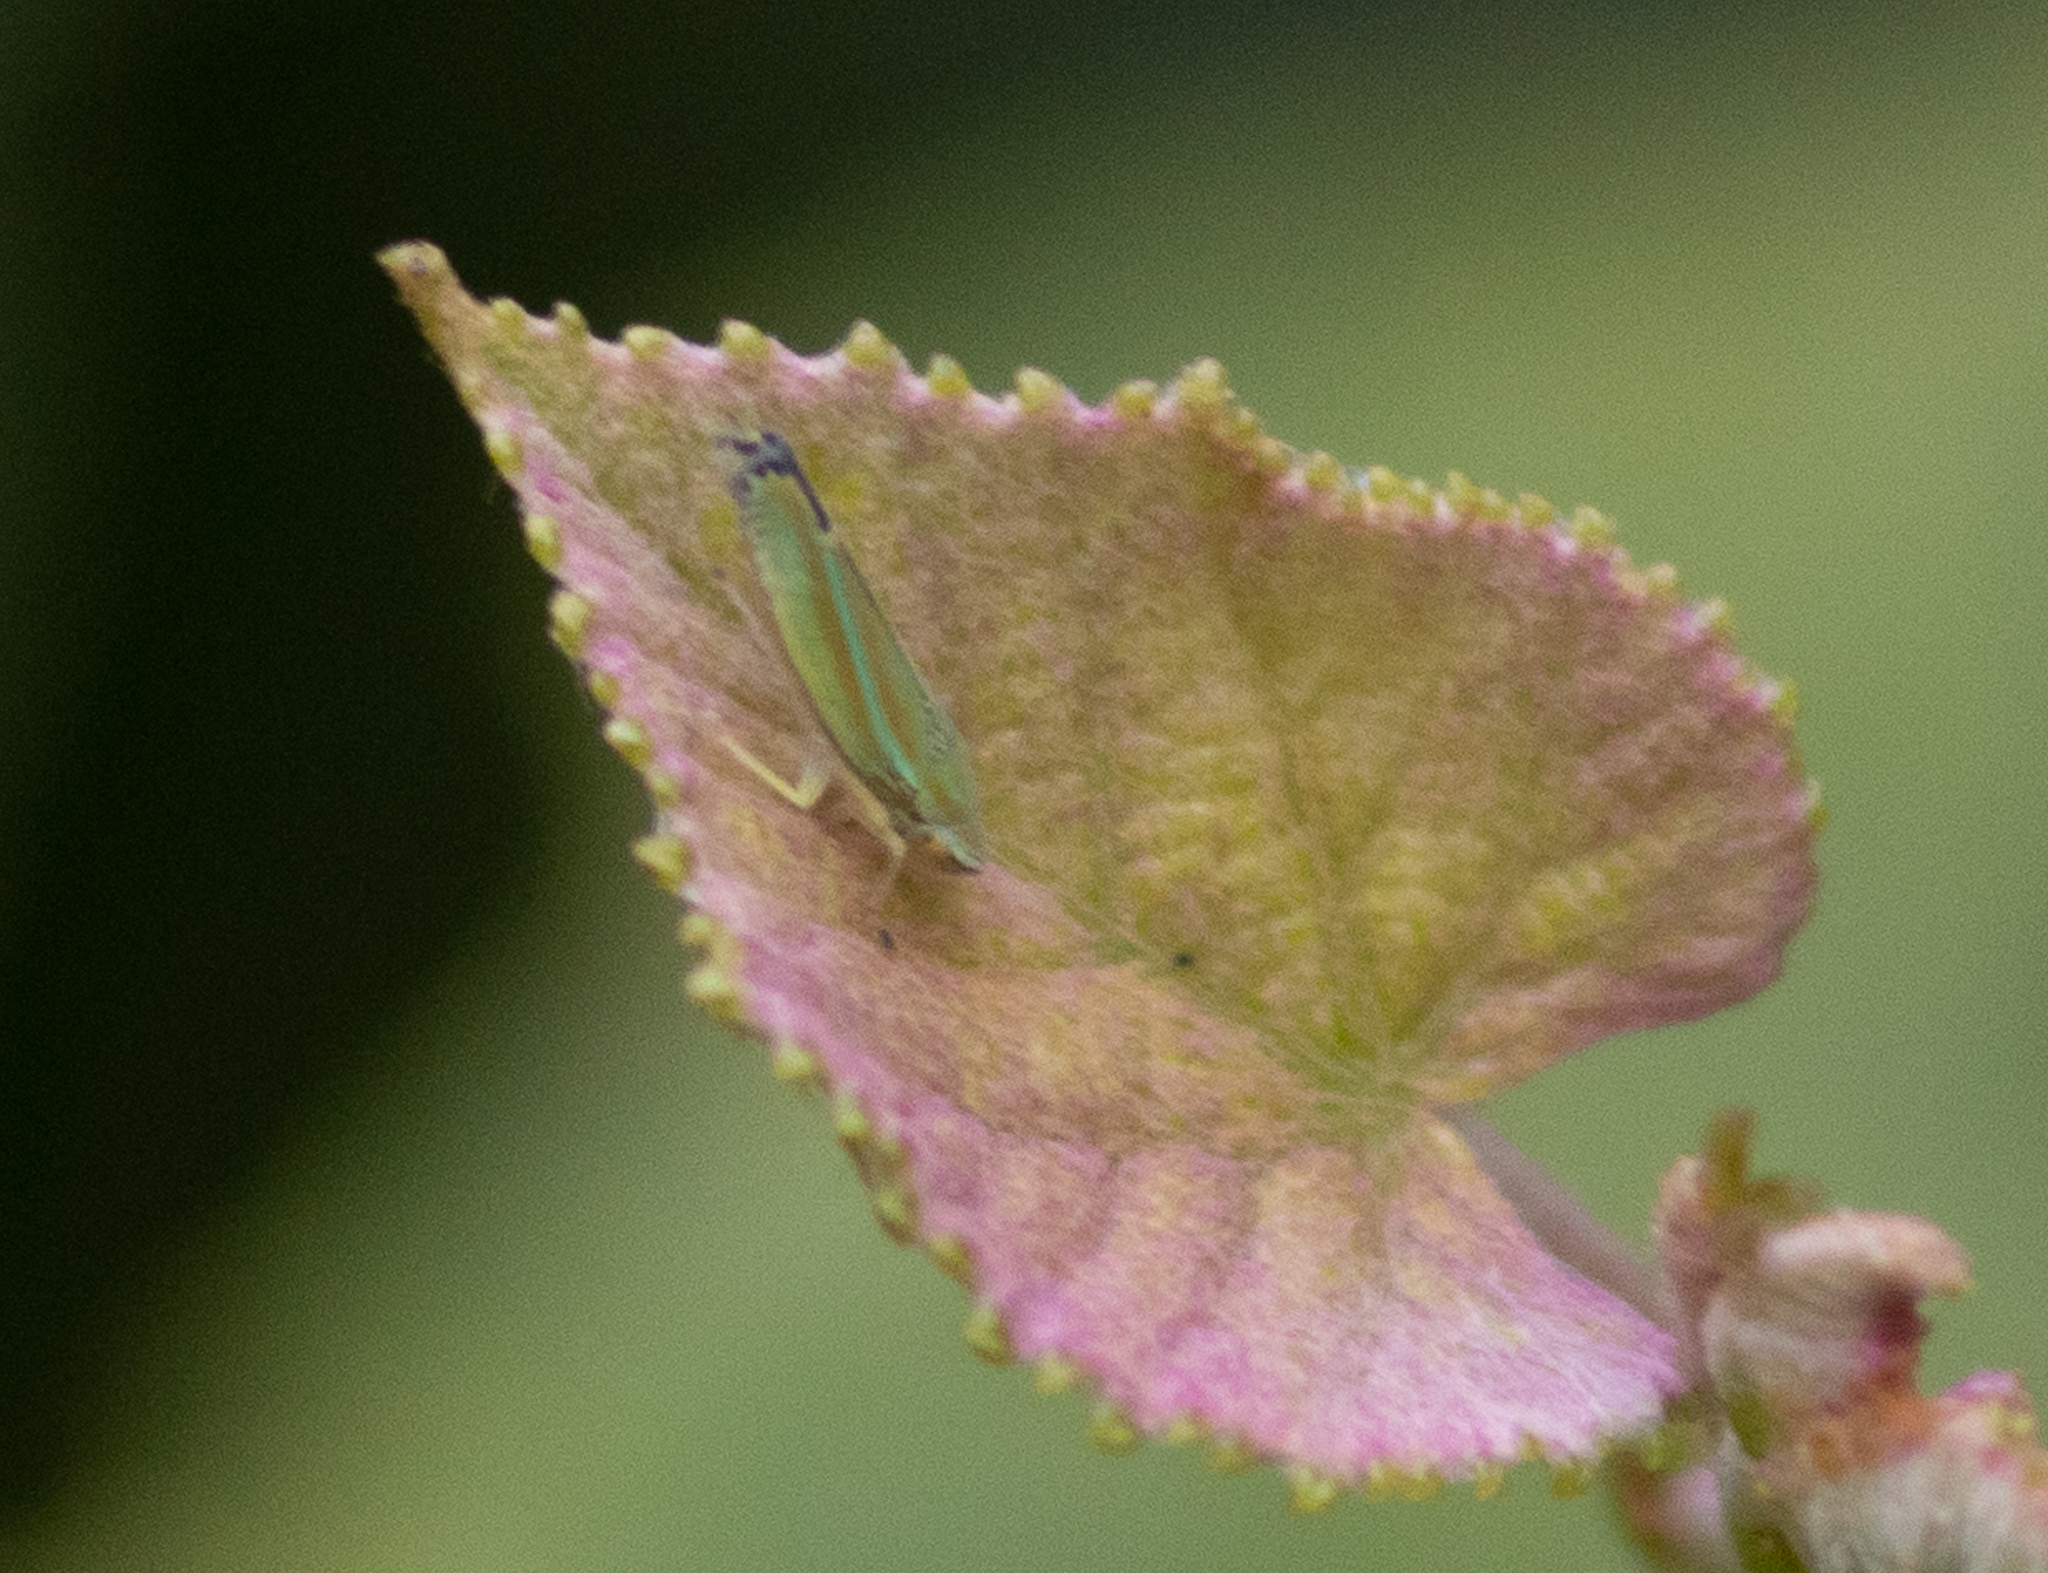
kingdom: Animalia
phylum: Arthropoda
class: Insecta
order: Hemiptera
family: Cicadellidae
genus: Graphocephala
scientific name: Graphocephala versuta
